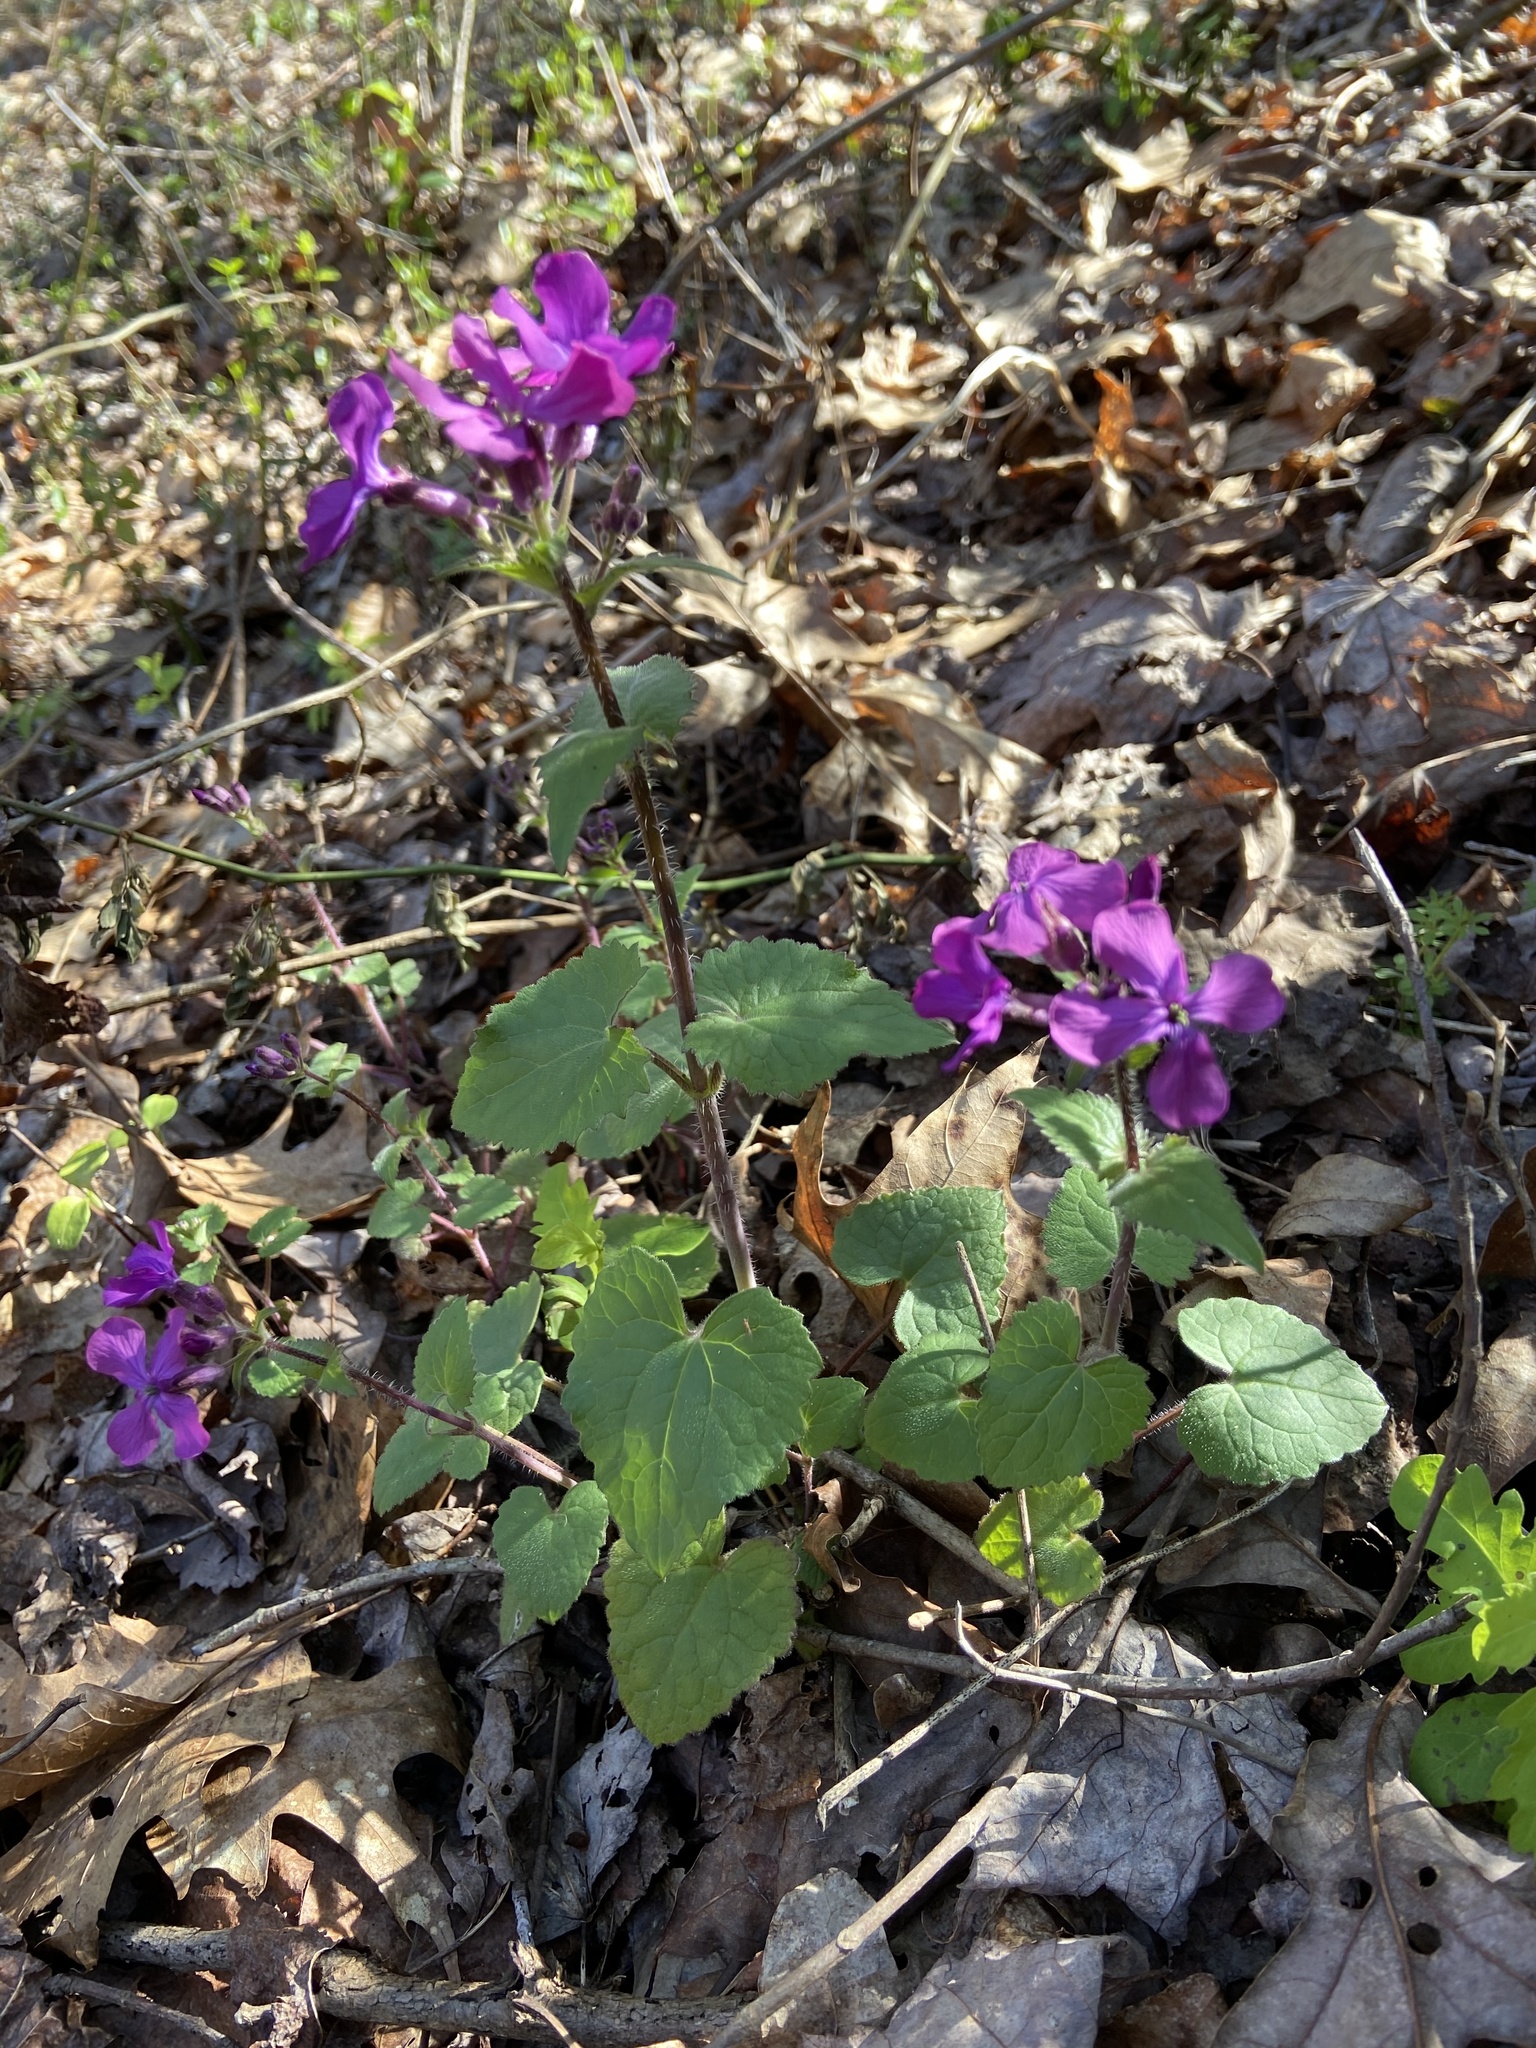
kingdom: Plantae
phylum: Tracheophyta
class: Magnoliopsida
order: Brassicales
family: Brassicaceae
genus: Lunaria
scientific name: Lunaria annua
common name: Honesty
